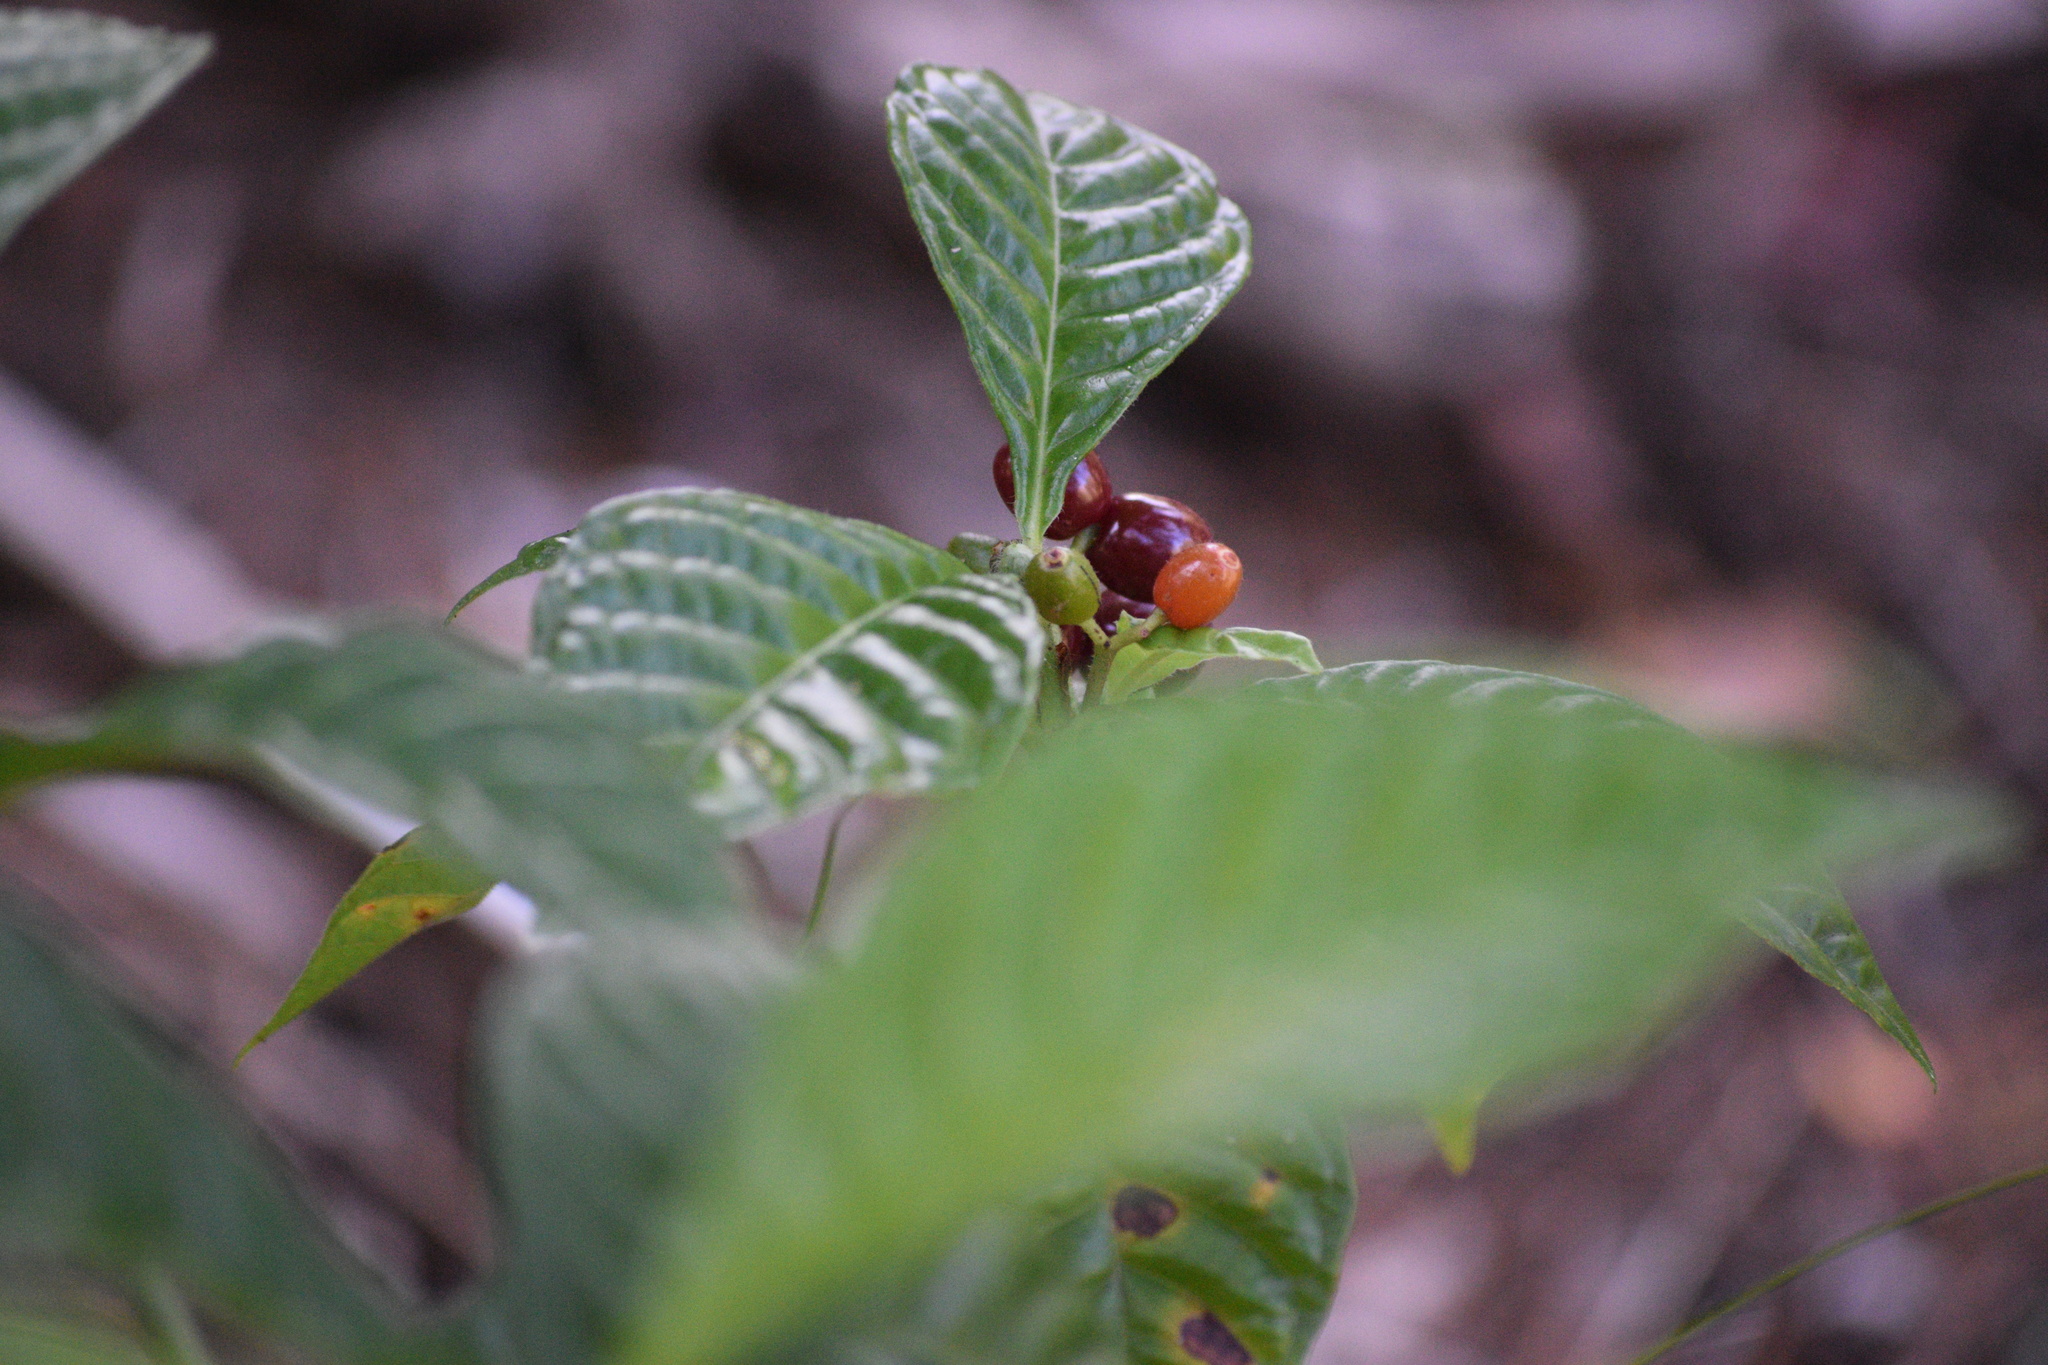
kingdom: Plantae
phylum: Tracheophyta
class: Magnoliopsida
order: Gentianales
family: Rubiaceae
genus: Psychotria
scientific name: Psychotria nervosa
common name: Bastard cankerberry
